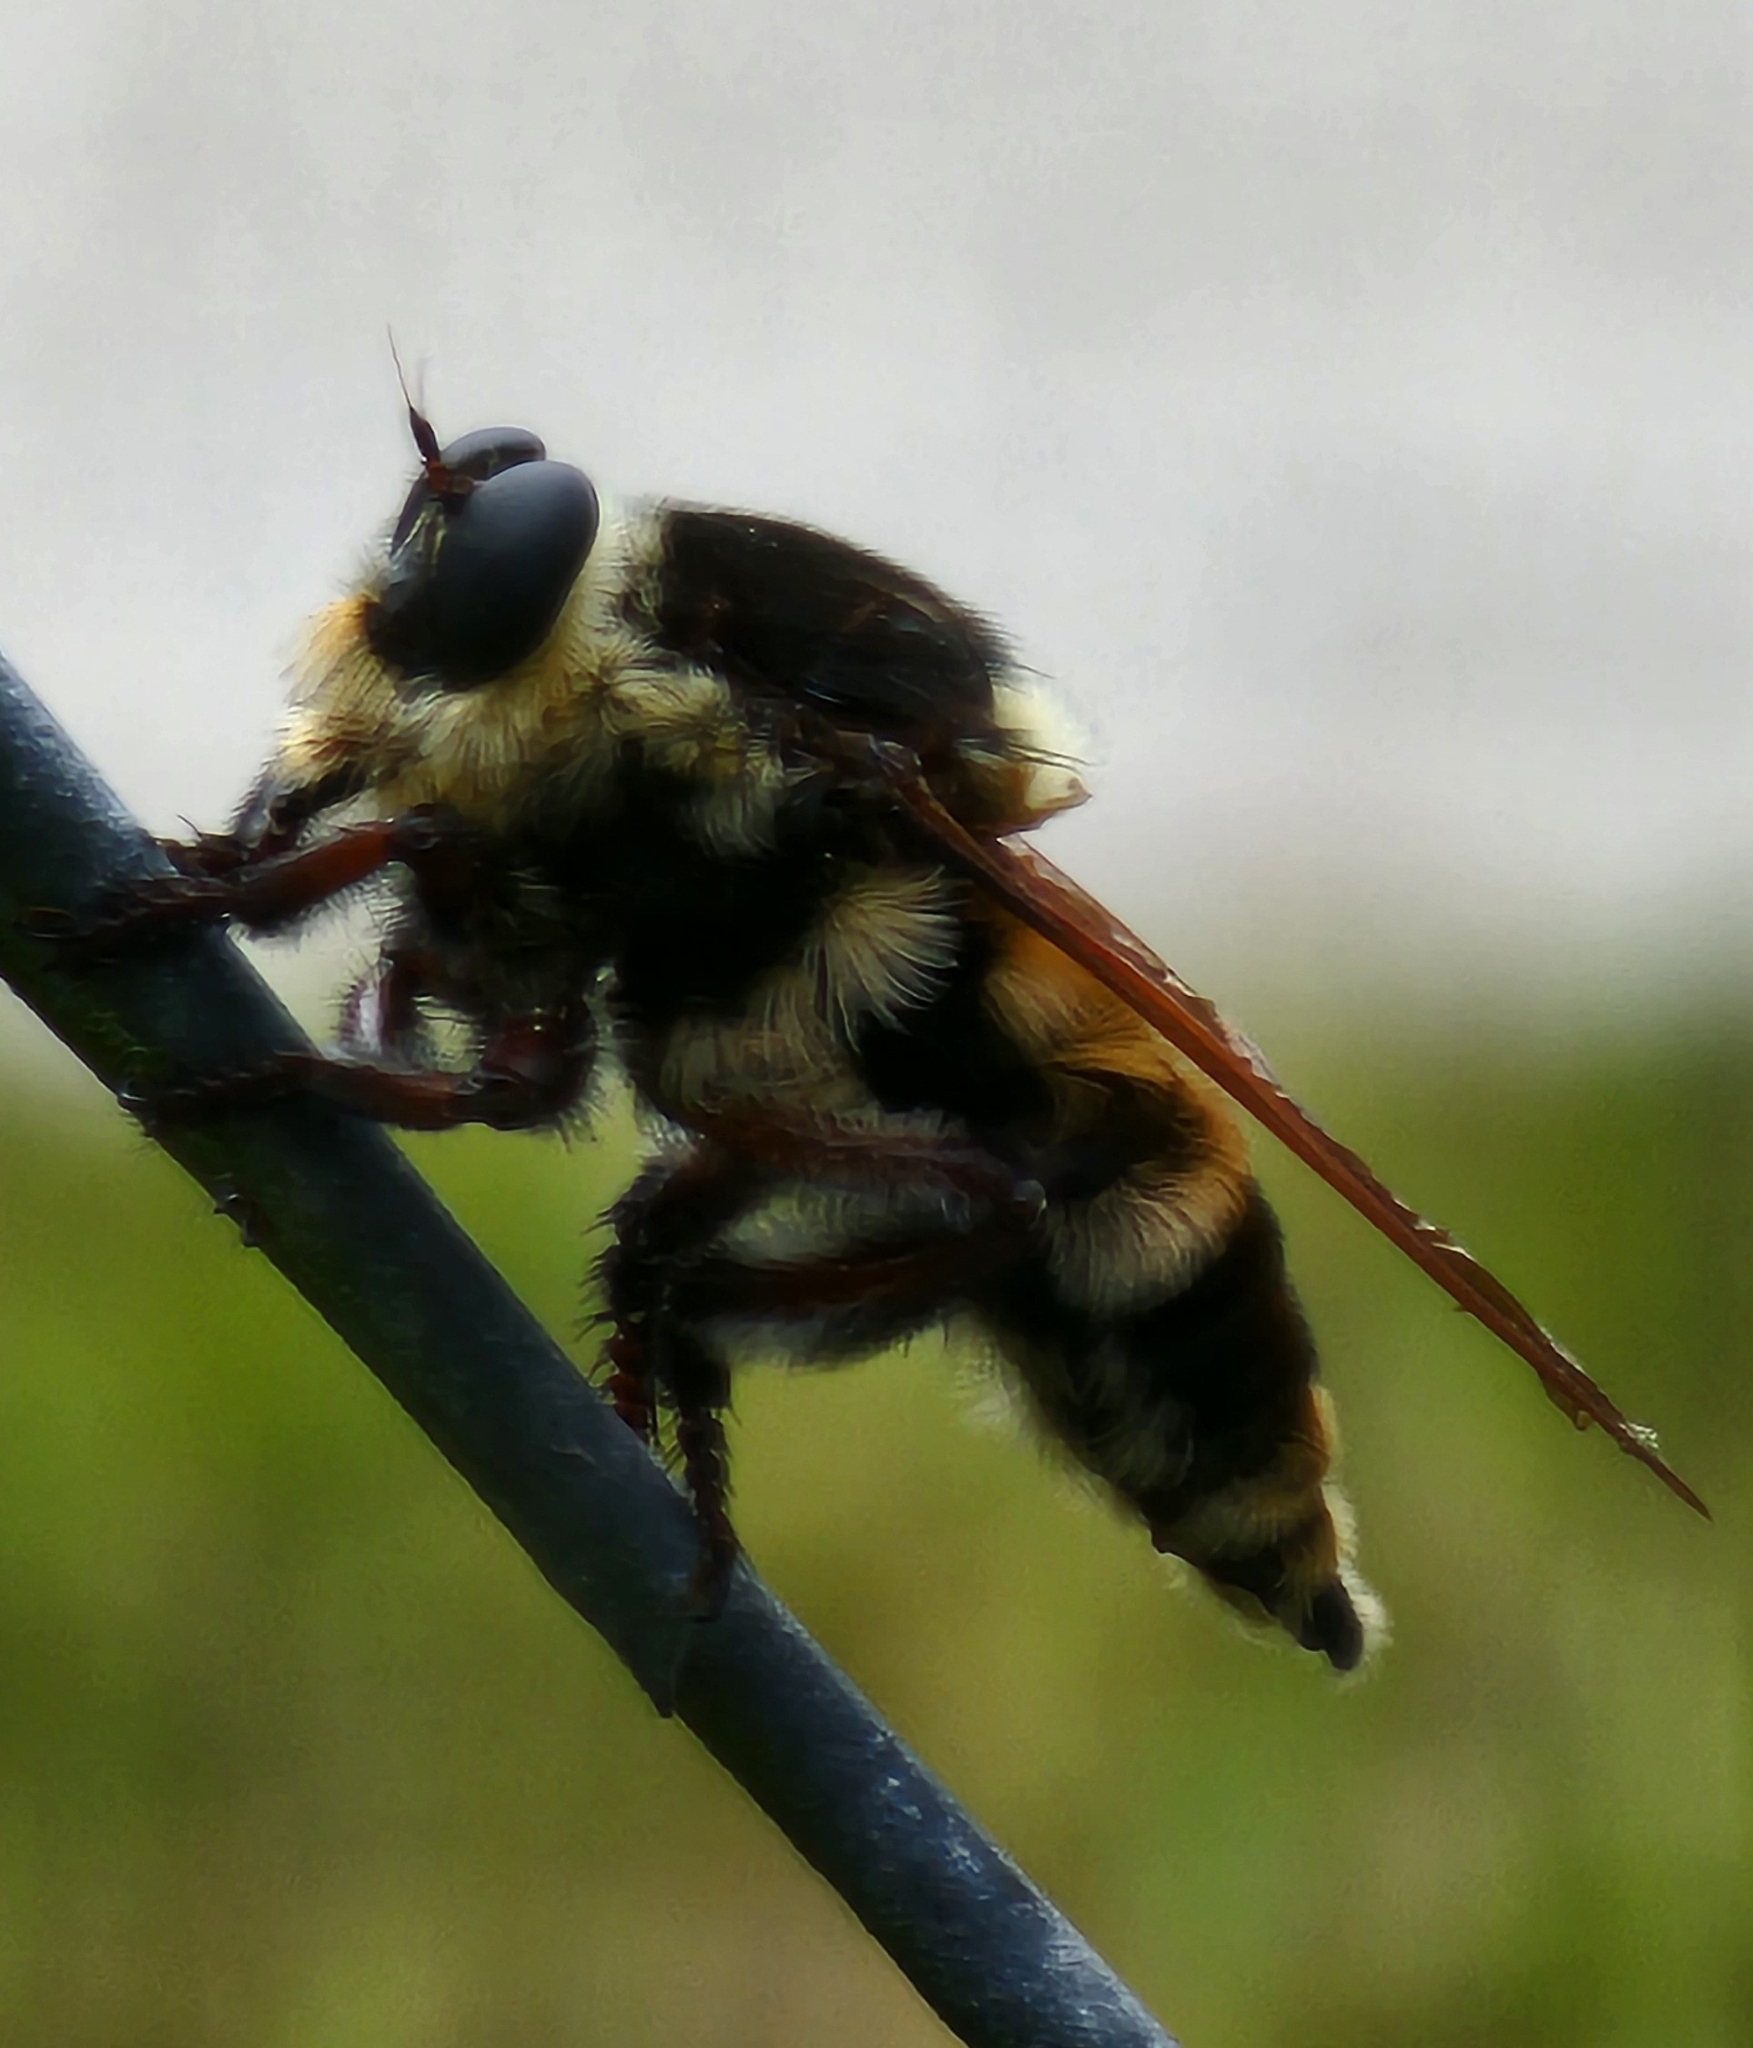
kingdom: Animalia
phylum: Arthropoda
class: Insecta
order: Diptera
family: Asilidae
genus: Mallophora
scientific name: Mallophora bomboides
